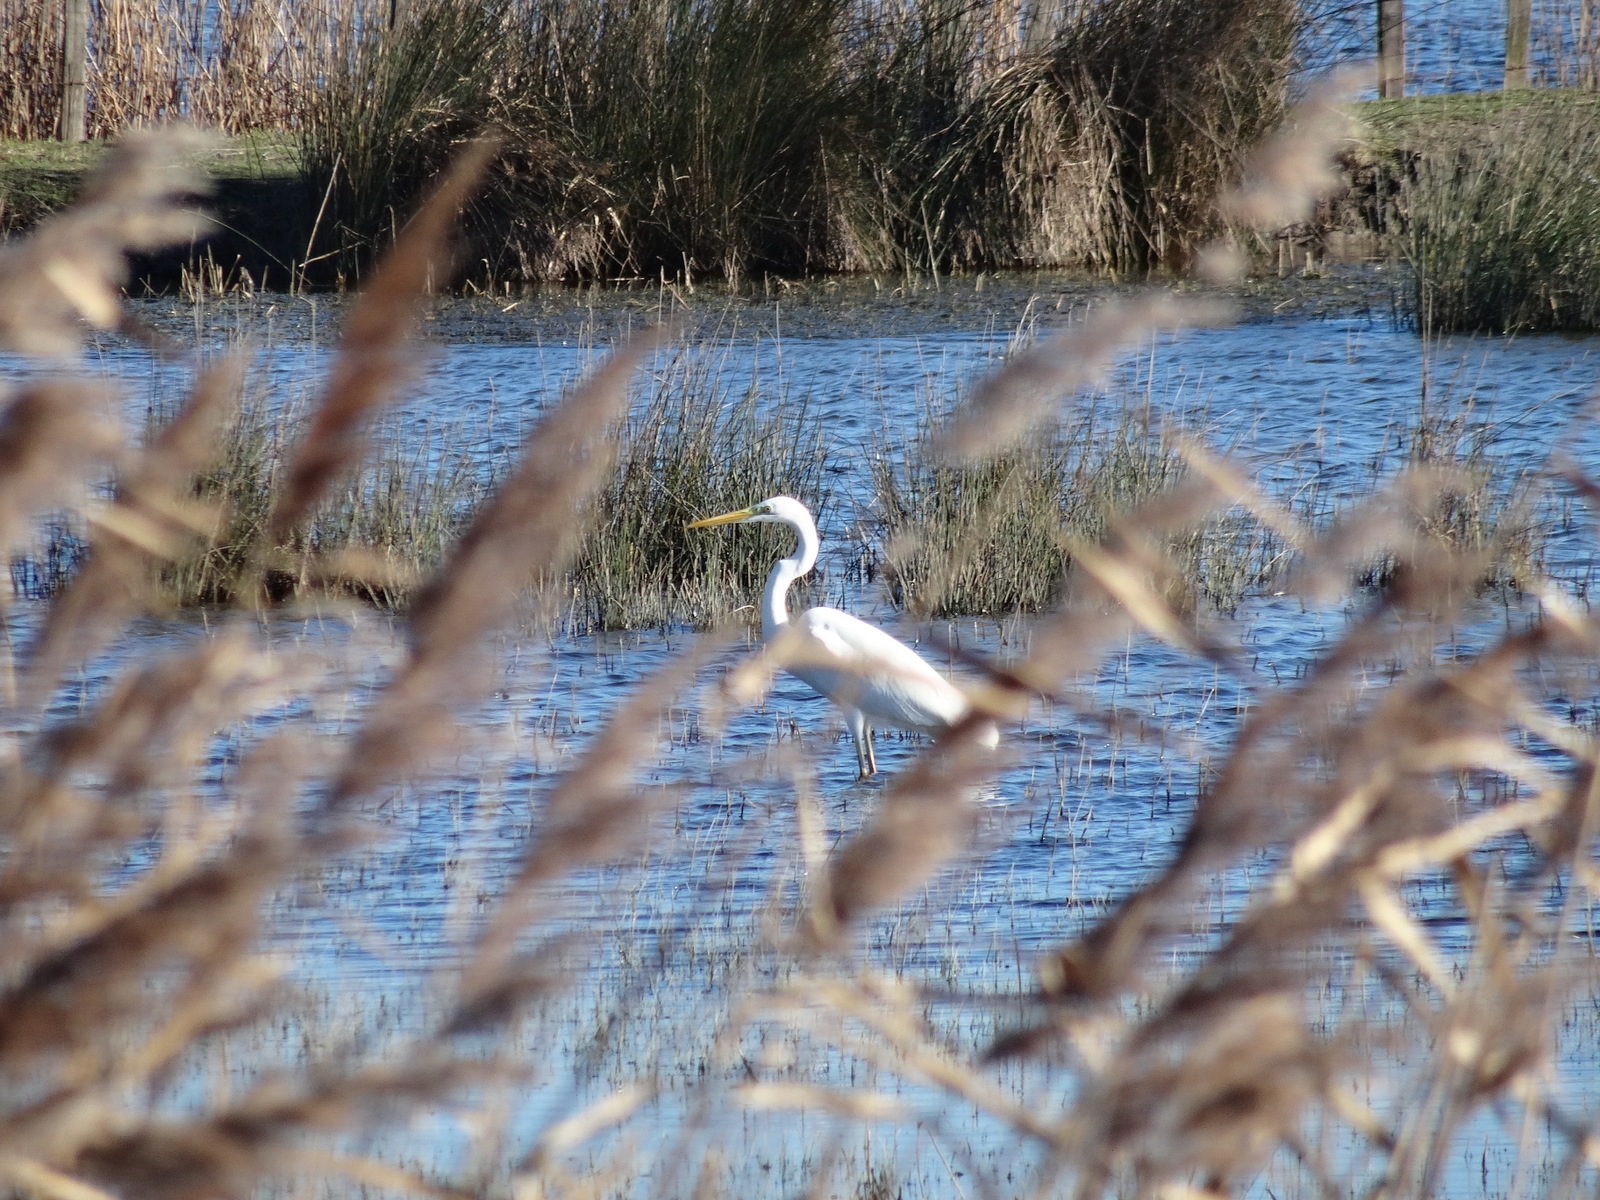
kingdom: Animalia
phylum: Chordata
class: Aves
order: Pelecaniformes
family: Ardeidae
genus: Ardea
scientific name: Ardea alba
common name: Great egret
